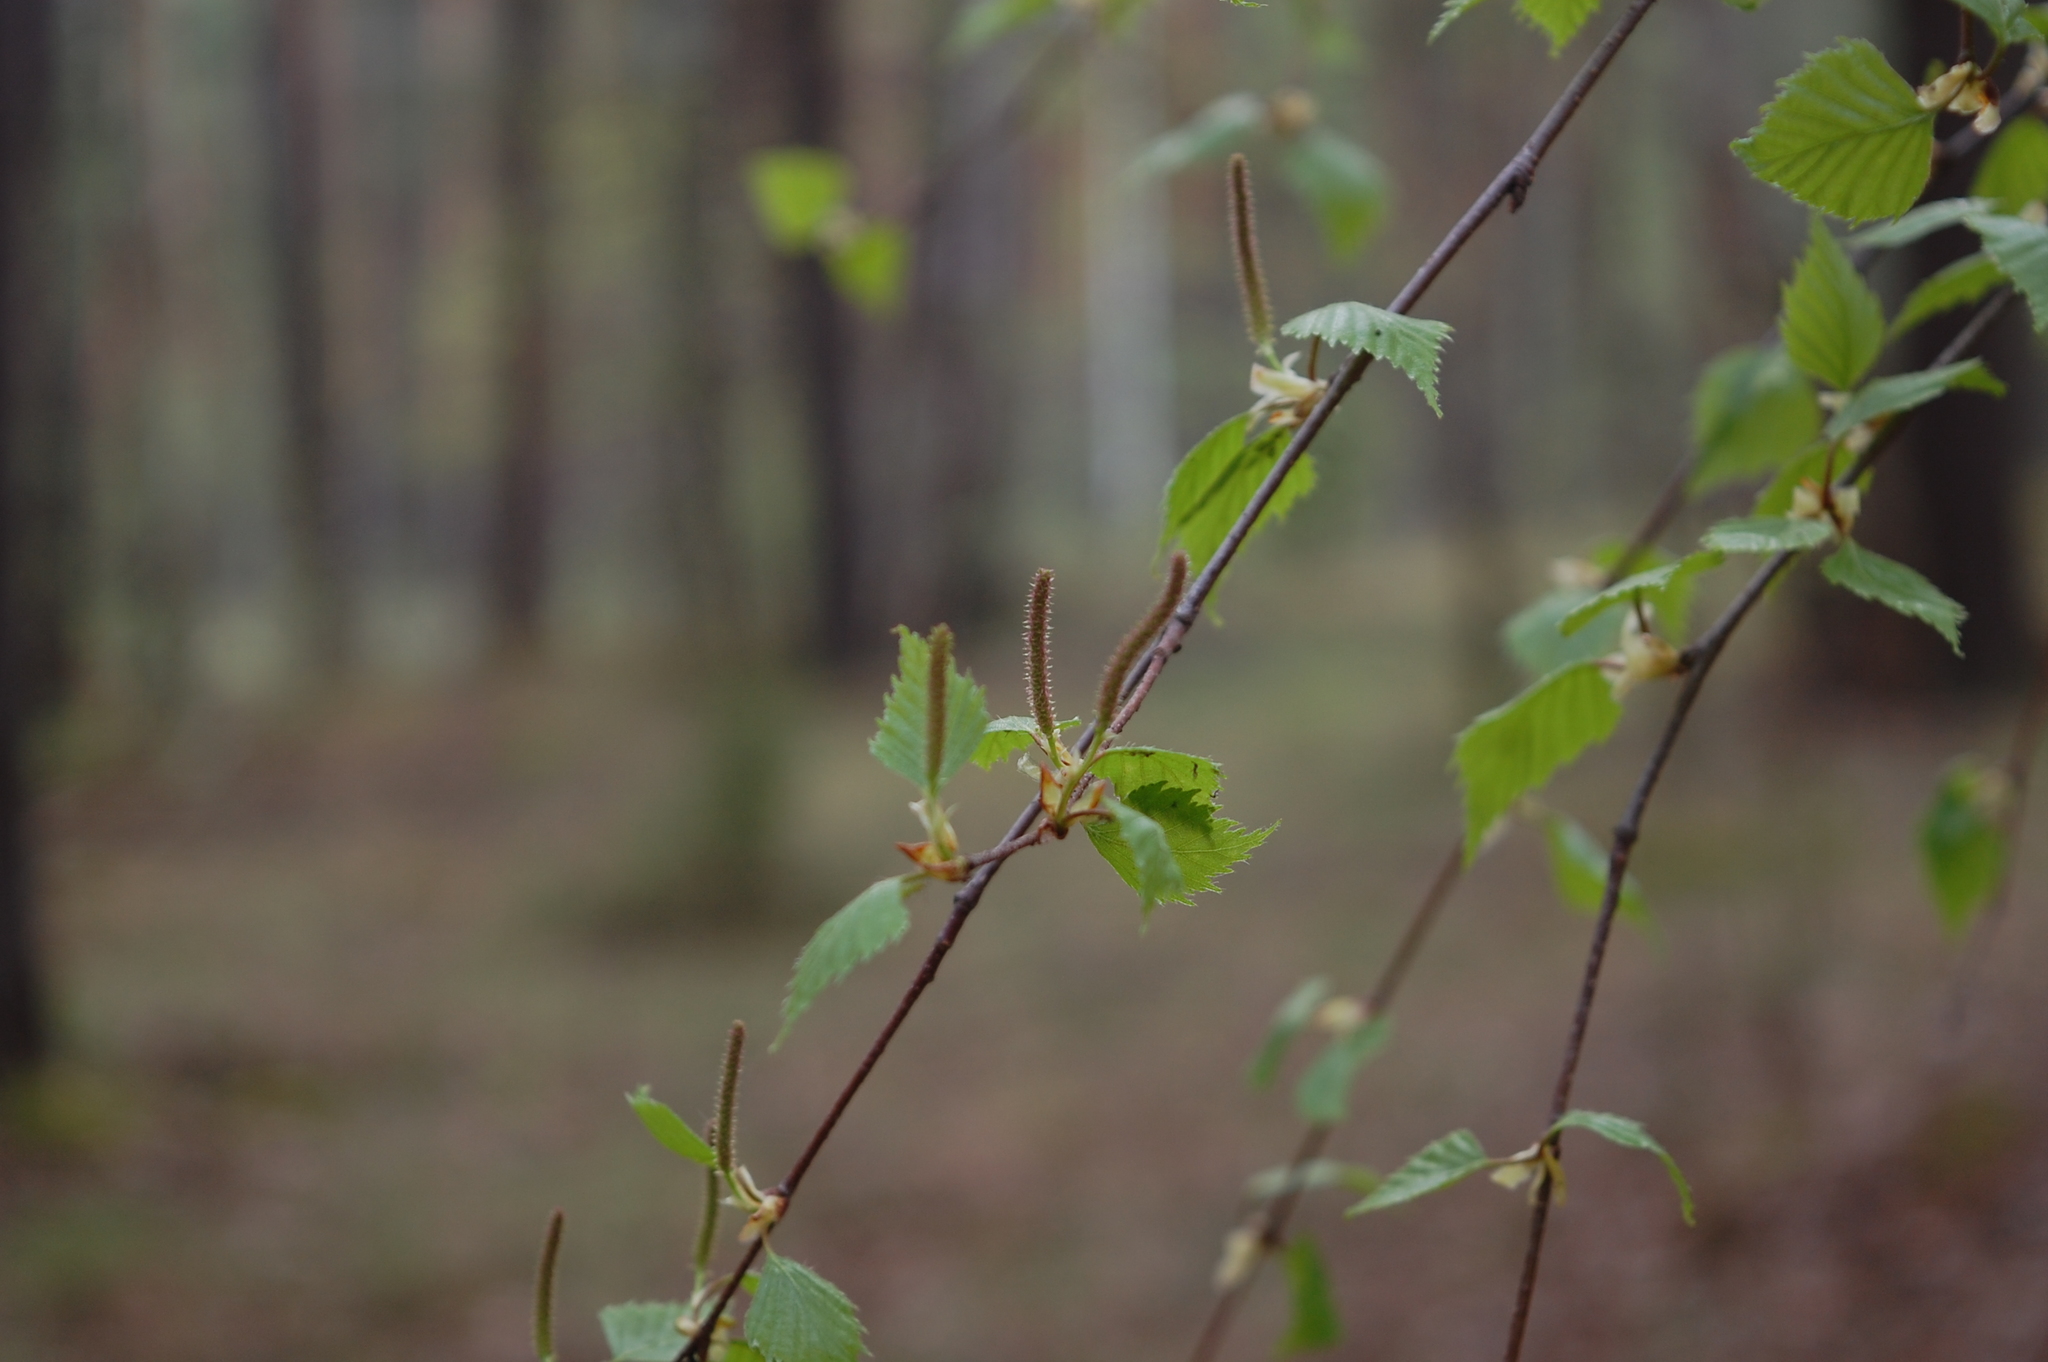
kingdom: Plantae
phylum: Tracheophyta
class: Magnoliopsida
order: Fagales
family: Betulaceae
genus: Betula
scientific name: Betula pendula
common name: Silver birch
